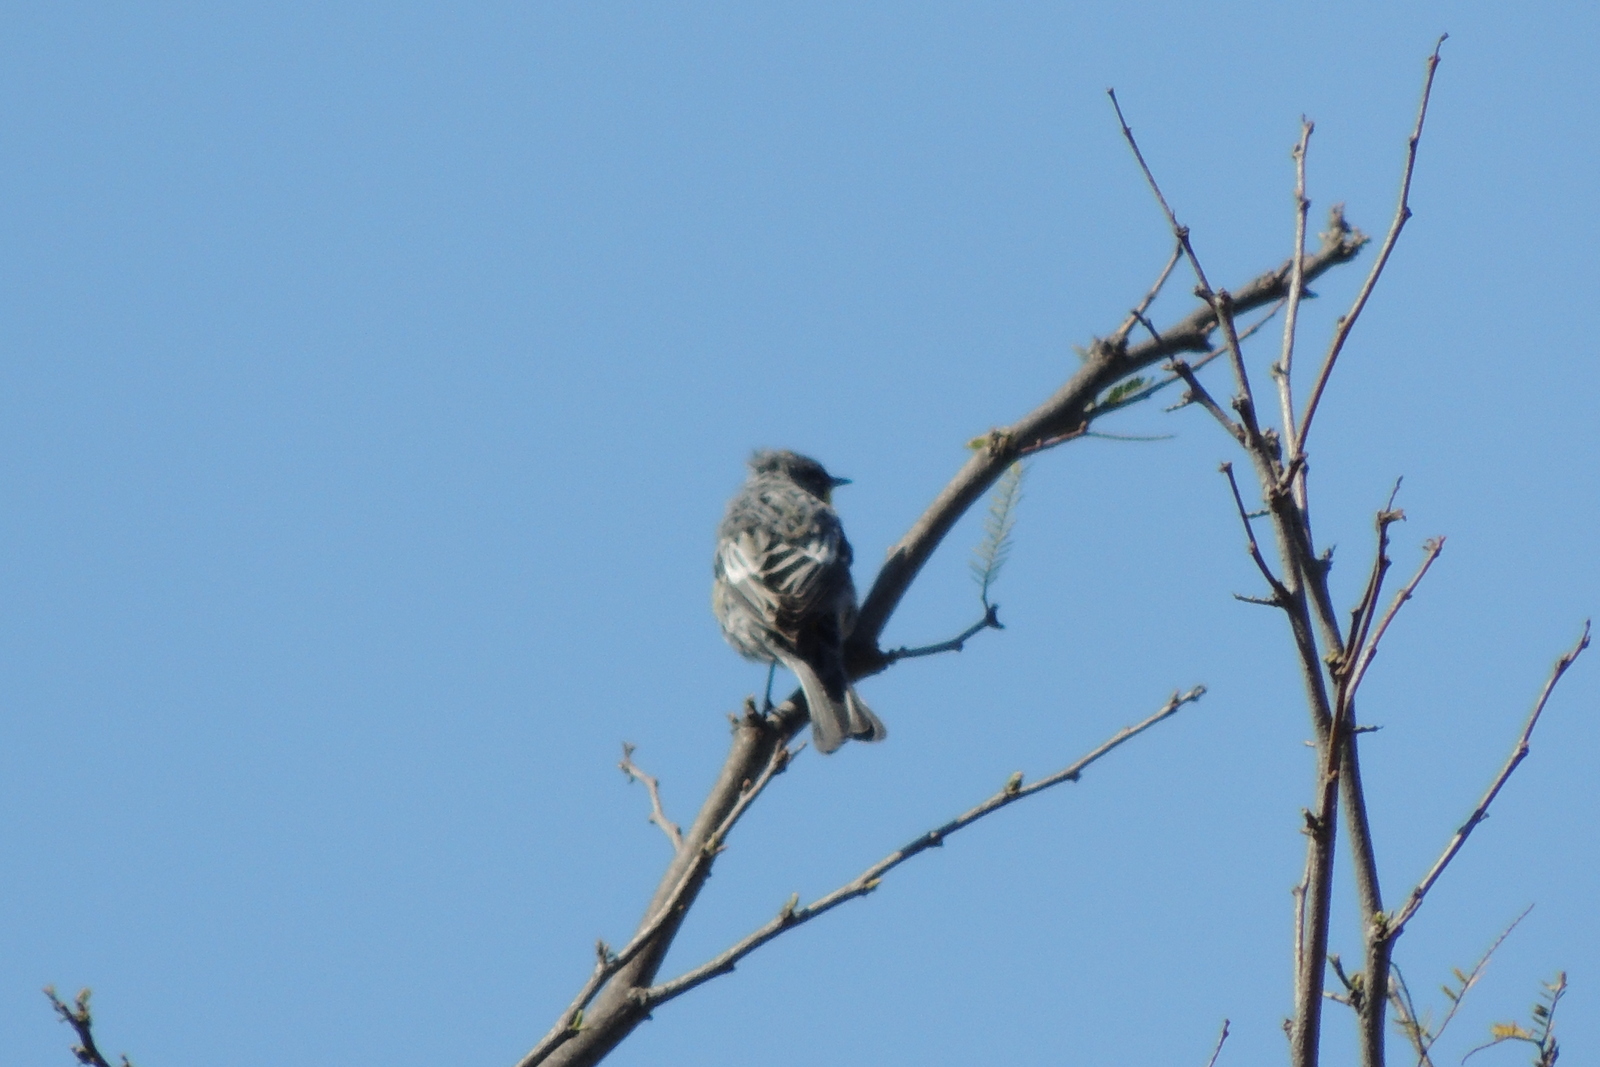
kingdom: Animalia
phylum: Chordata
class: Aves
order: Passeriformes
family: Parulidae
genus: Setophaga
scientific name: Setophaga coronata
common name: Myrtle warbler
